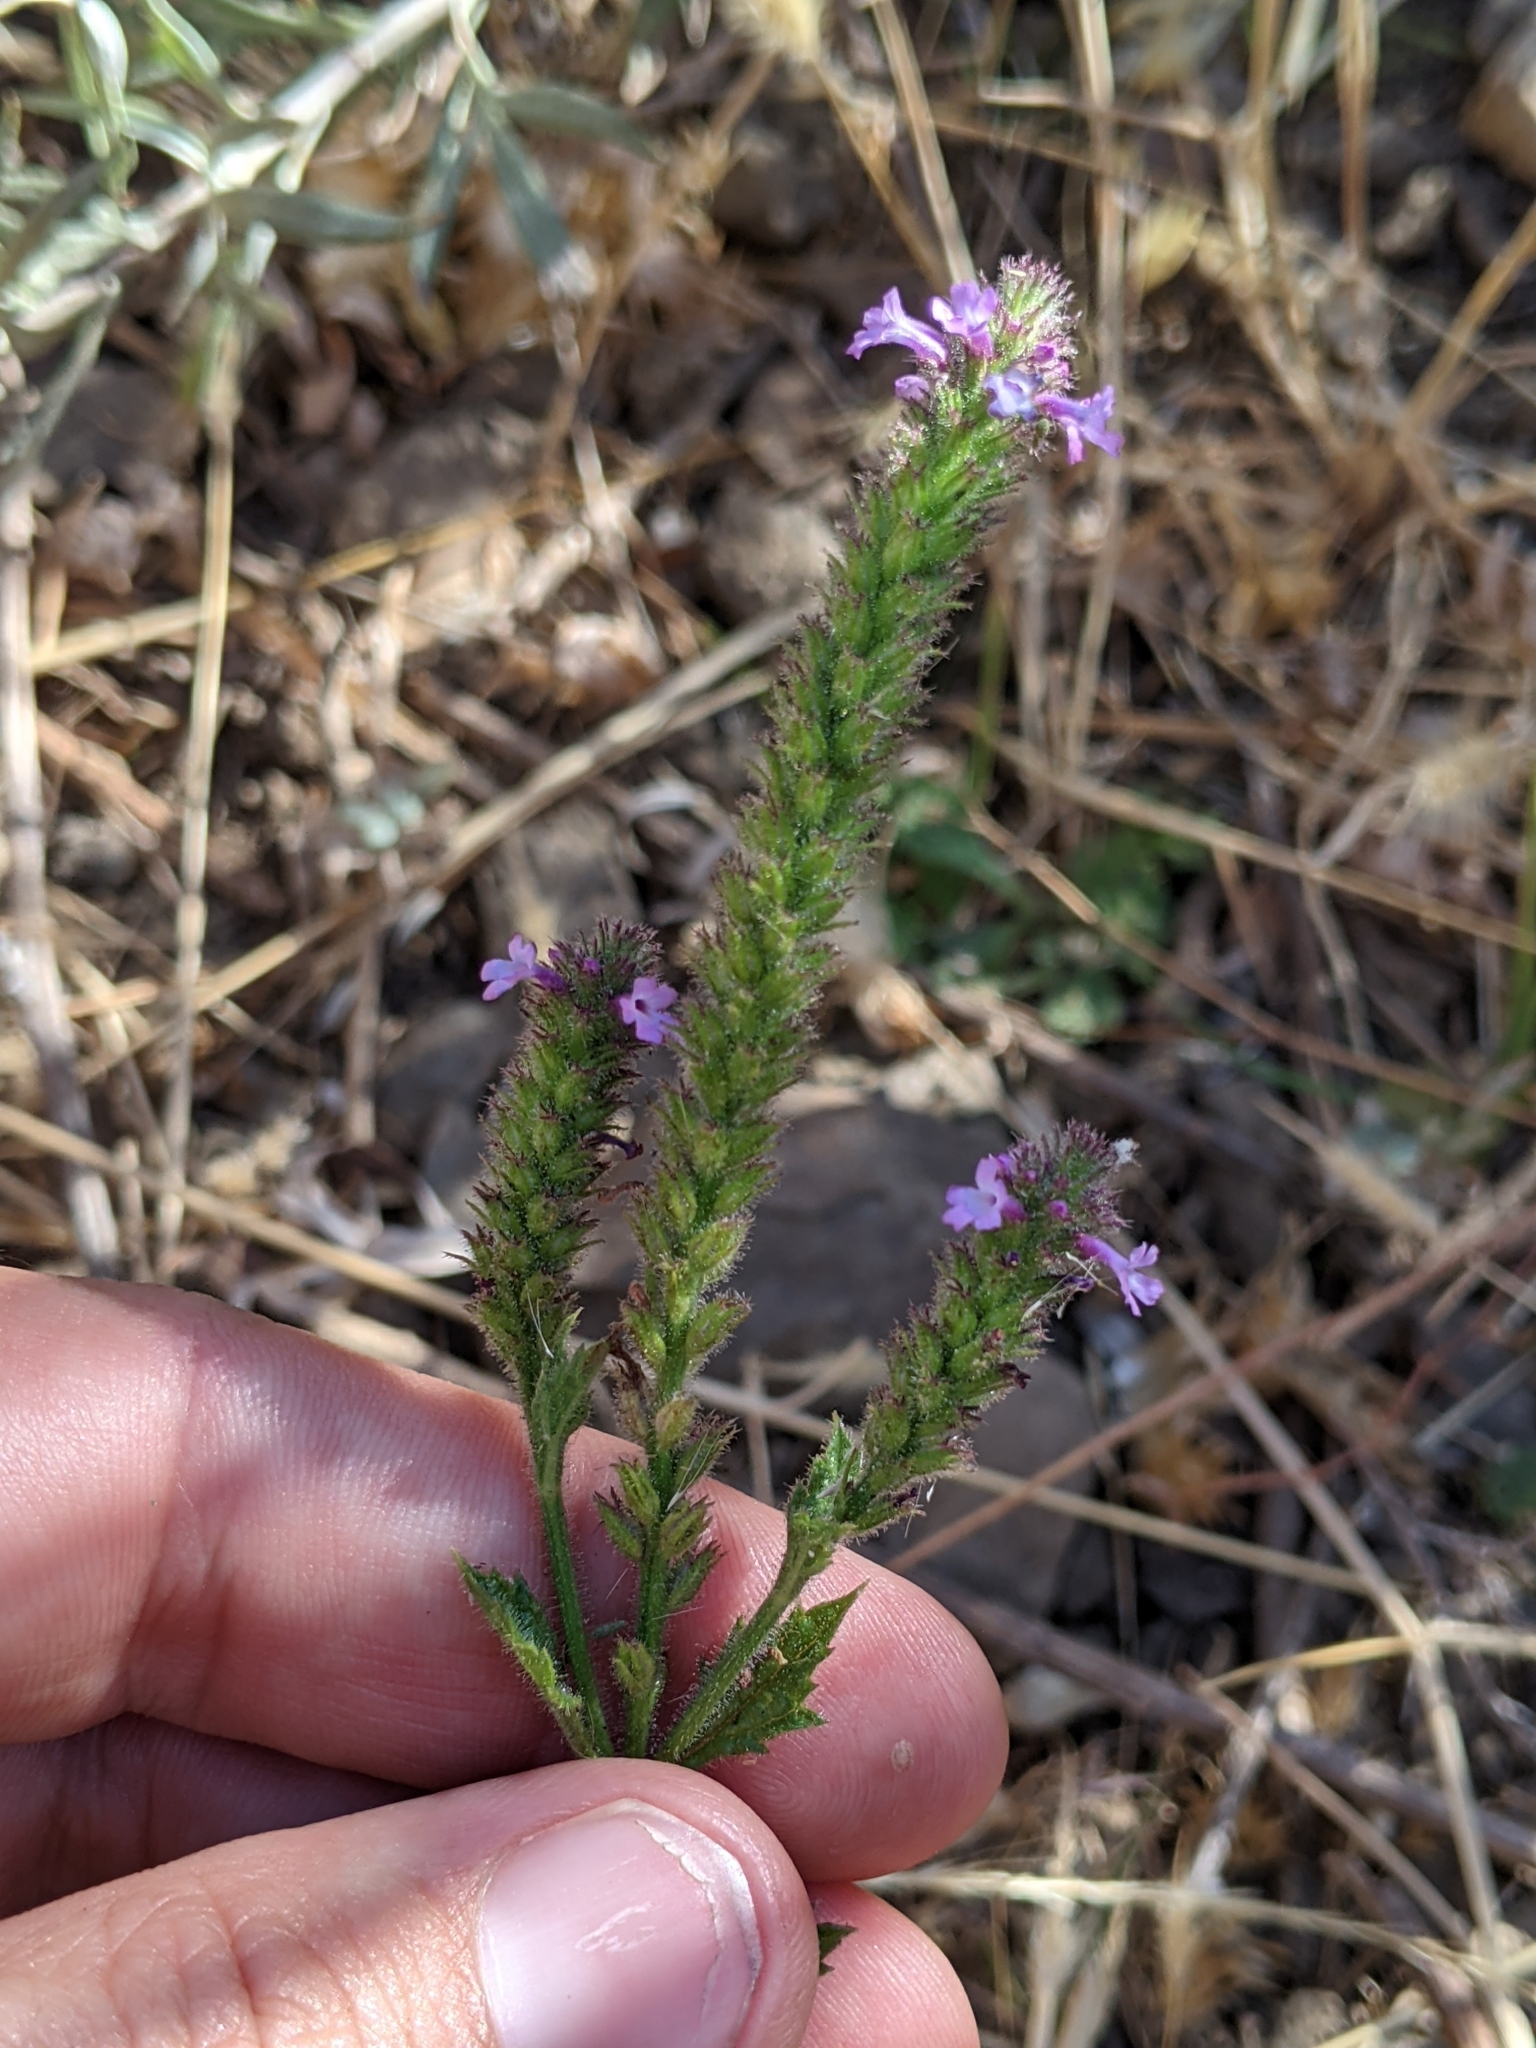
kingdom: Plantae
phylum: Tracheophyta
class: Magnoliopsida
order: Lamiales
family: Verbenaceae
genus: Verbena
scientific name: Verbena lasiostachys
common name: Vervain
